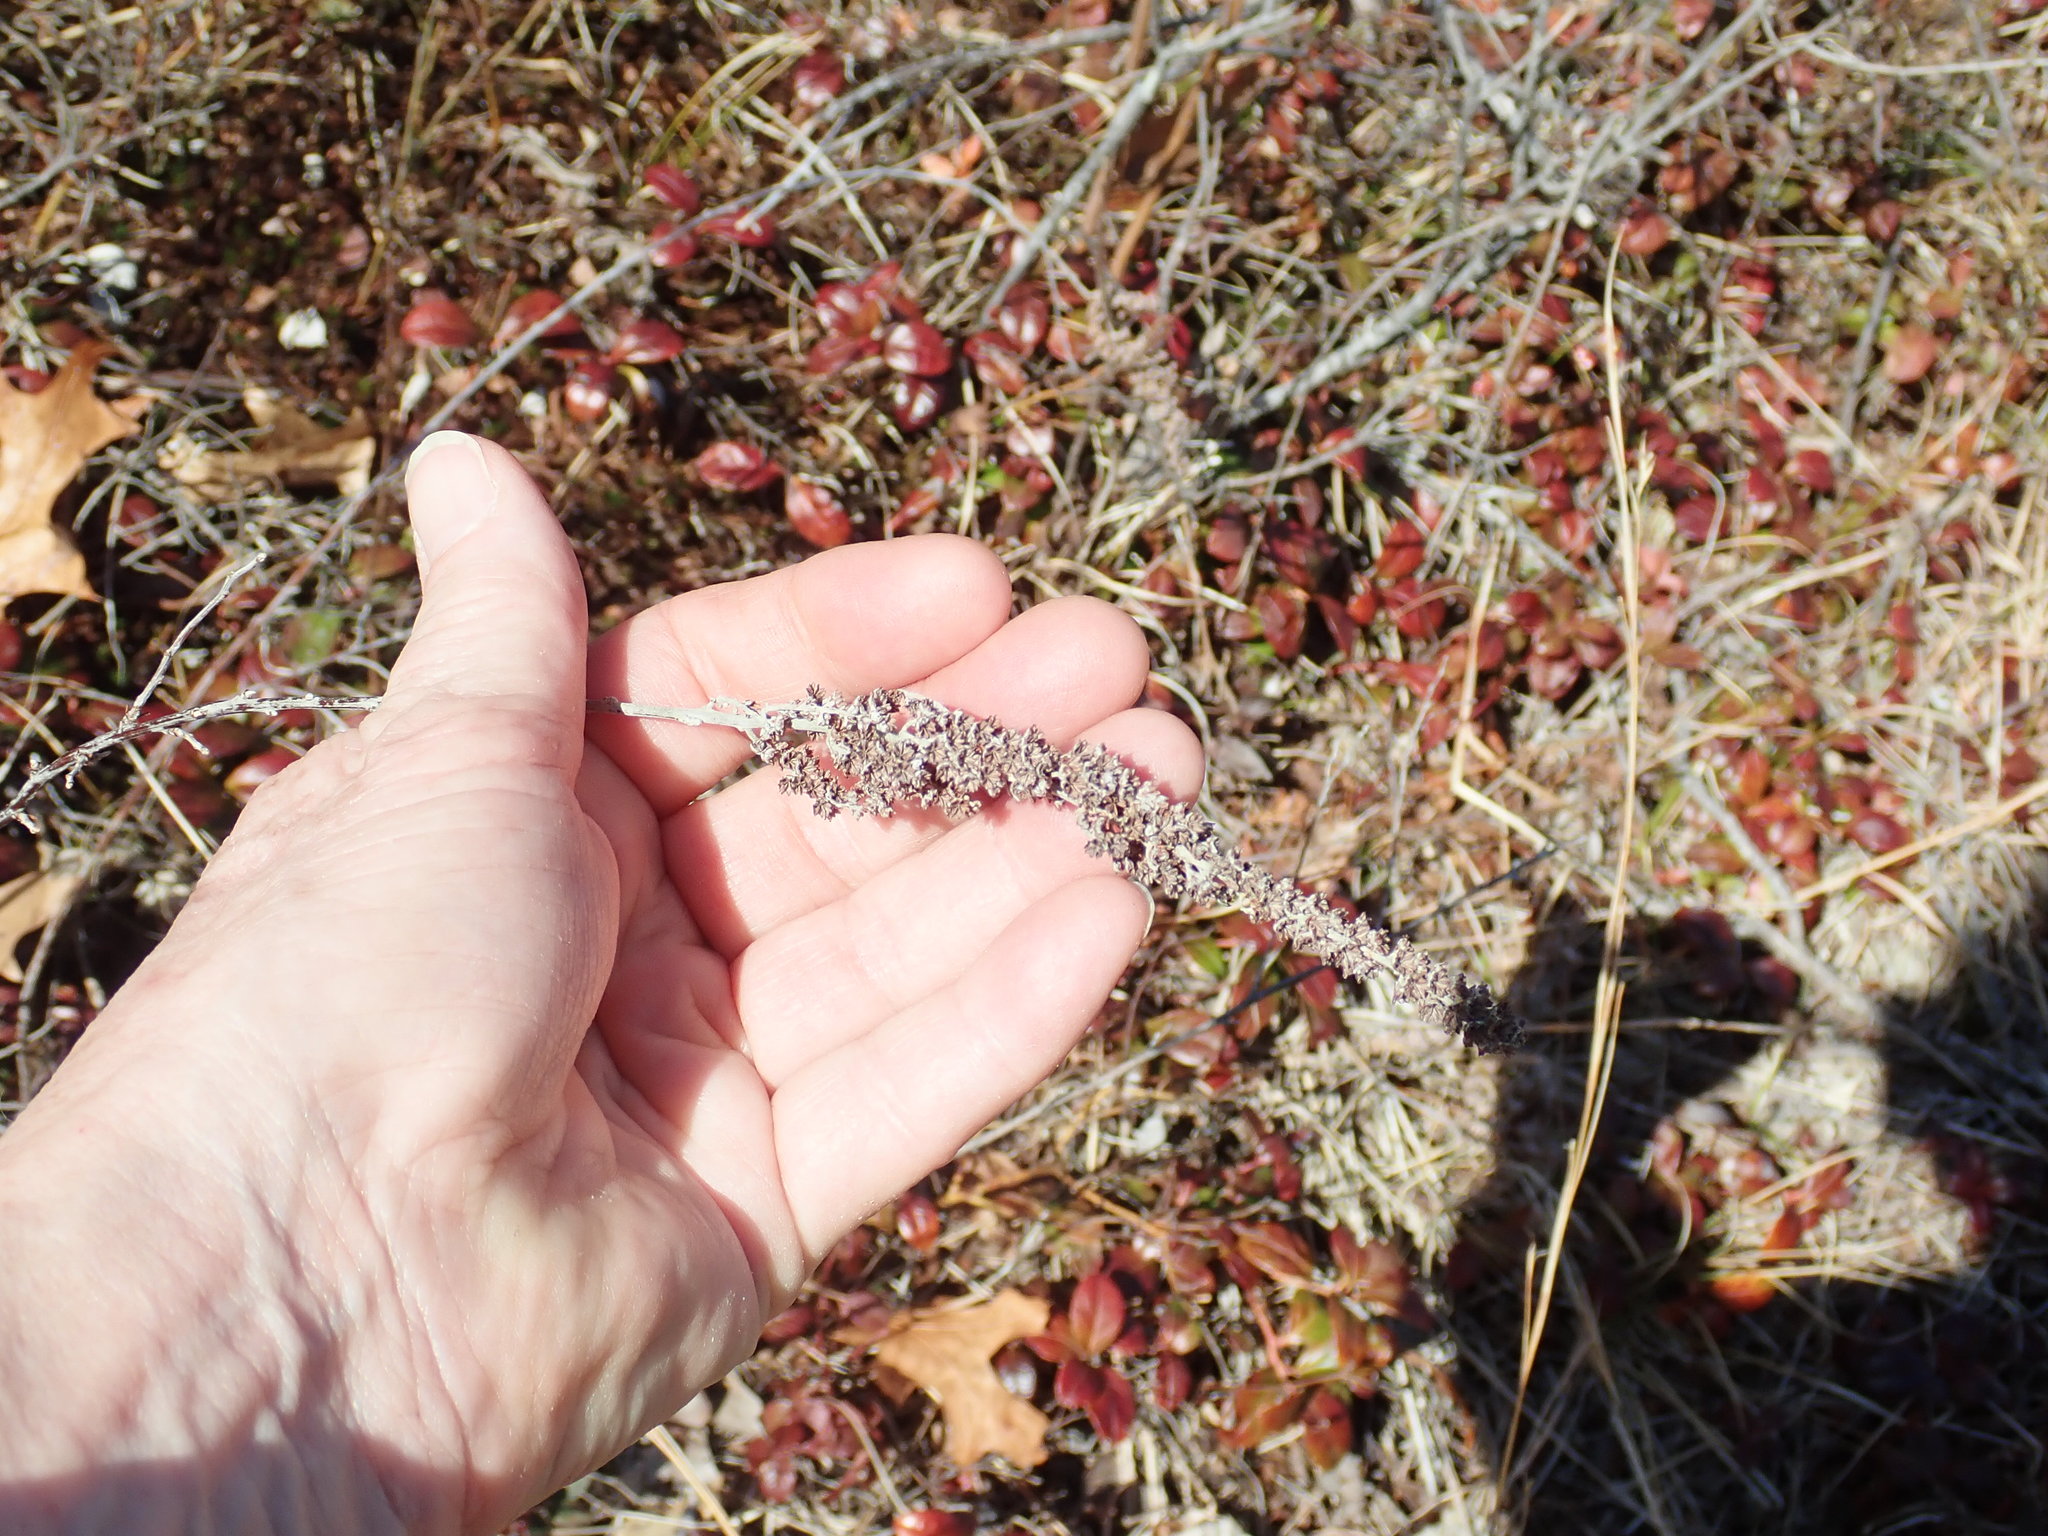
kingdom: Plantae
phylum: Tracheophyta
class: Magnoliopsida
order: Rosales
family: Rosaceae
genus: Spiraea
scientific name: Spiraea tomentosa
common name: Hardhack
